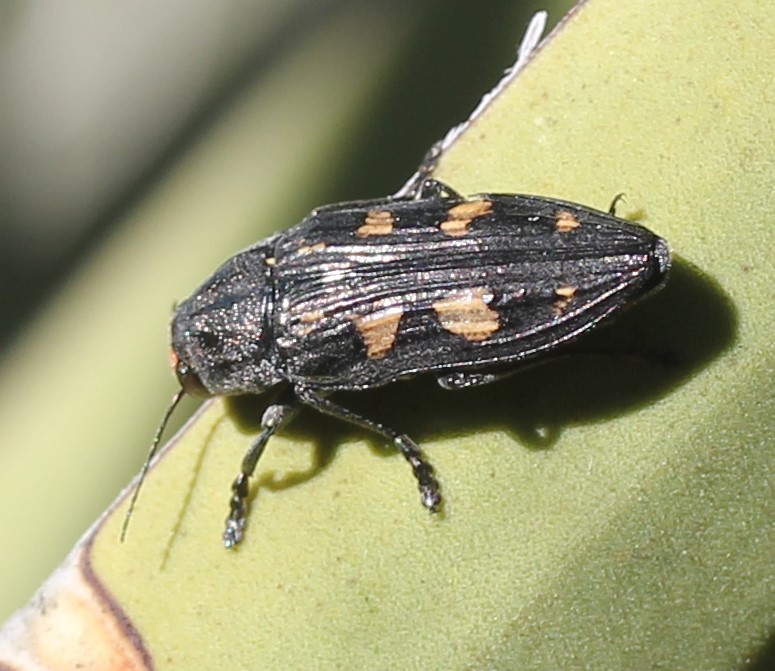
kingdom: Animalia
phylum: Arthropoda
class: Insecta
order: Coleoptera
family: Buprestidae
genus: Buprestis
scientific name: Buprestis laeviventris
